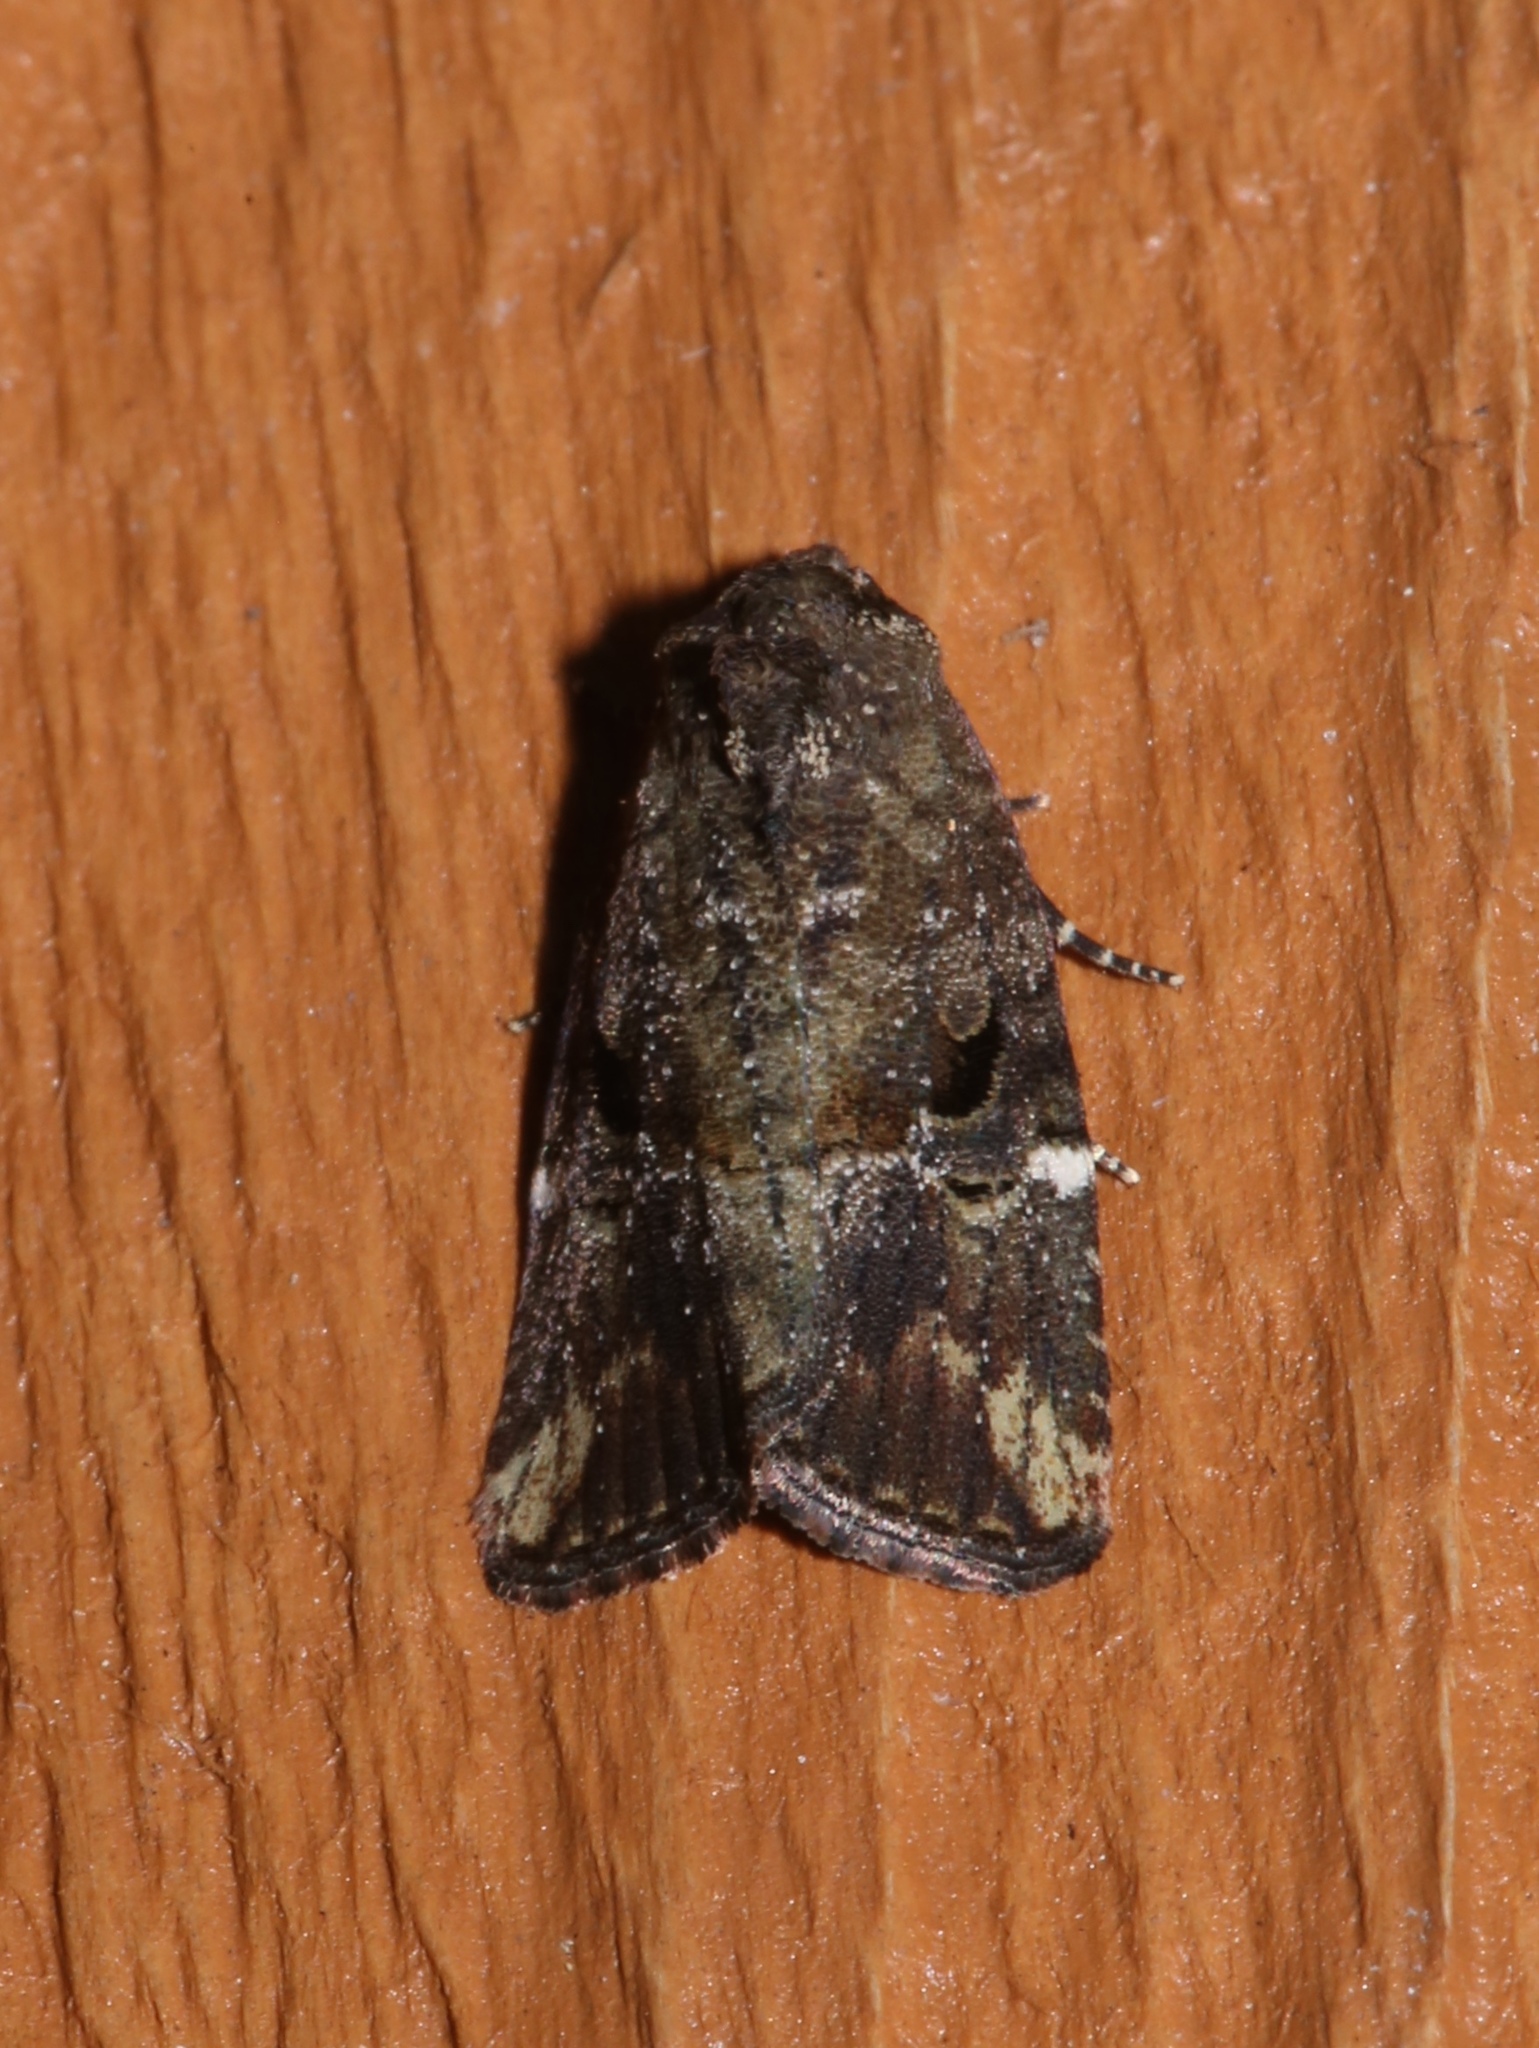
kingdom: Animalia
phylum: Arthropoda
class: Insecta
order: Lepidoptera
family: Noctuidae
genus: Elaphria
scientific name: Elaphria versicolor
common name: Fir harlequin
